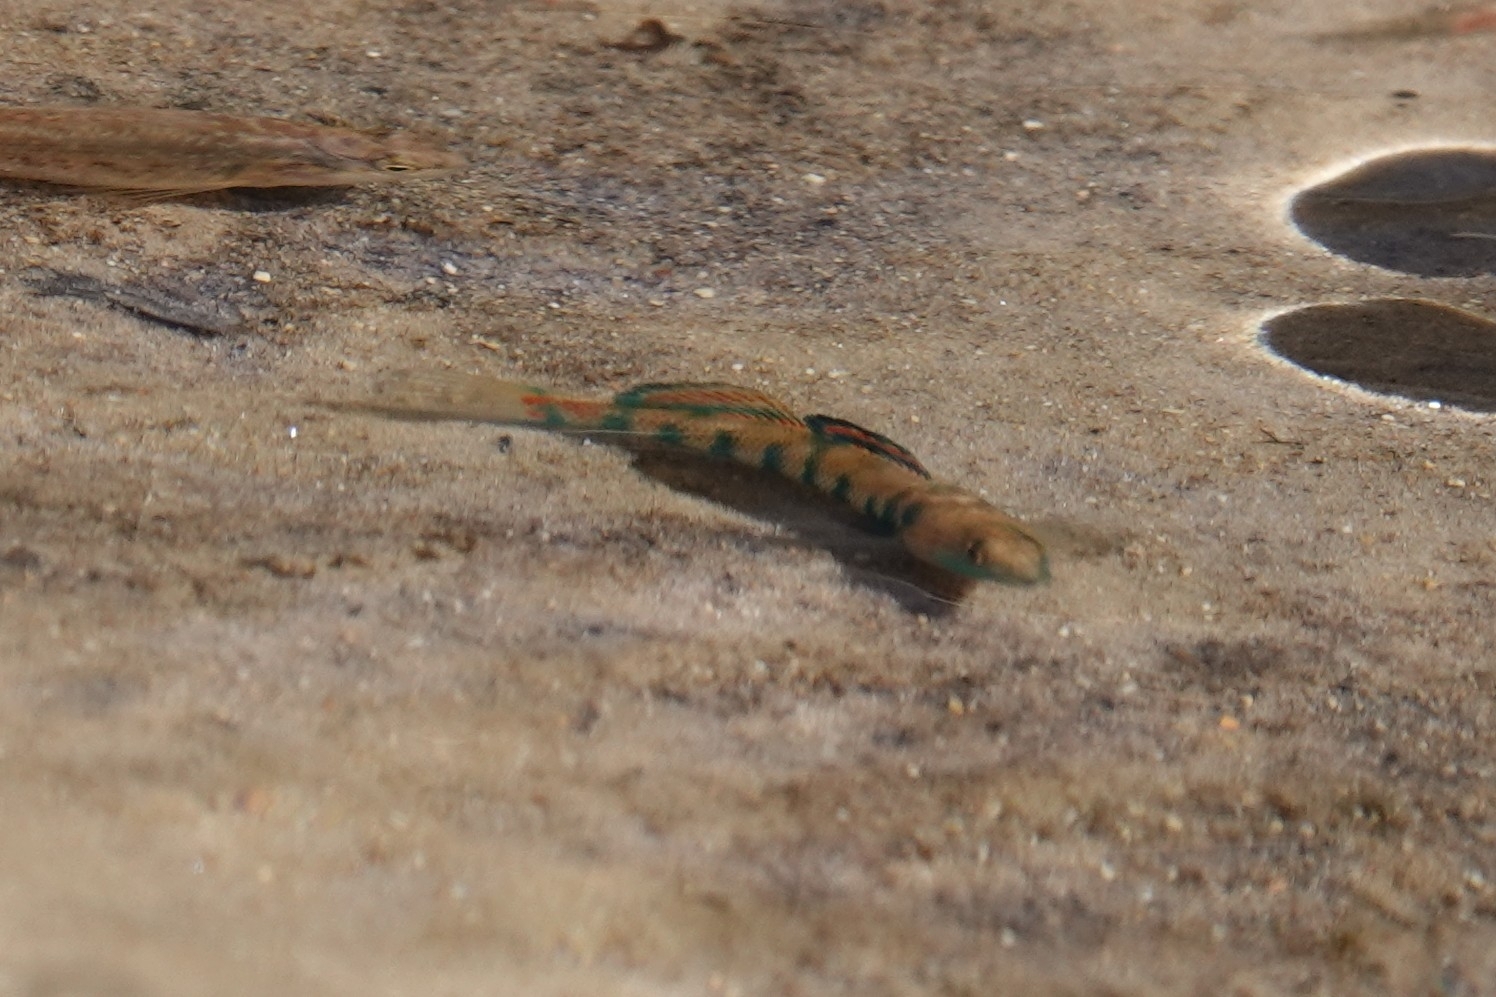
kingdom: Animalia
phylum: Chordata
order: Perciformes
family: Percidae
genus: Etheostoma
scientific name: Etheostoma uniporum
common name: Current darter
